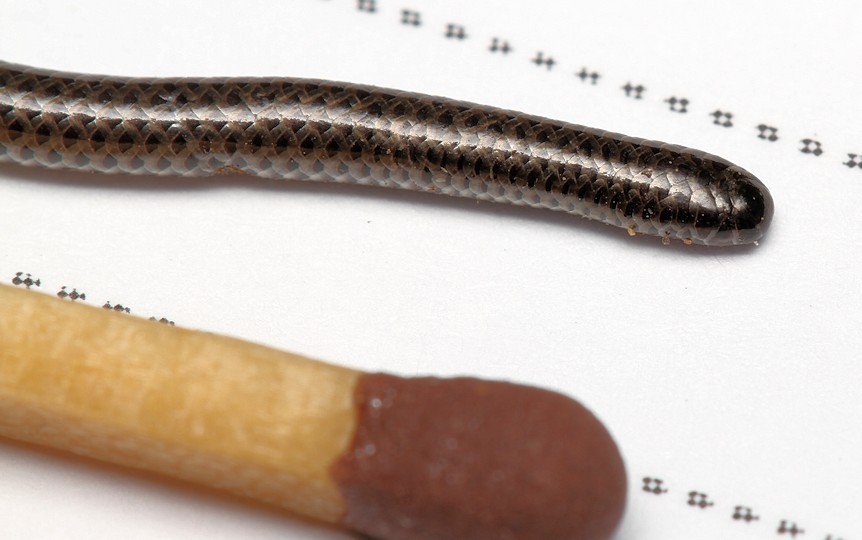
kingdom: Animalia
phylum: Chordata
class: Squamata
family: Leptotyphlopidae
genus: Leptotyphlops
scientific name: Leptotyphlops incognitus
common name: Incognito thread snake
